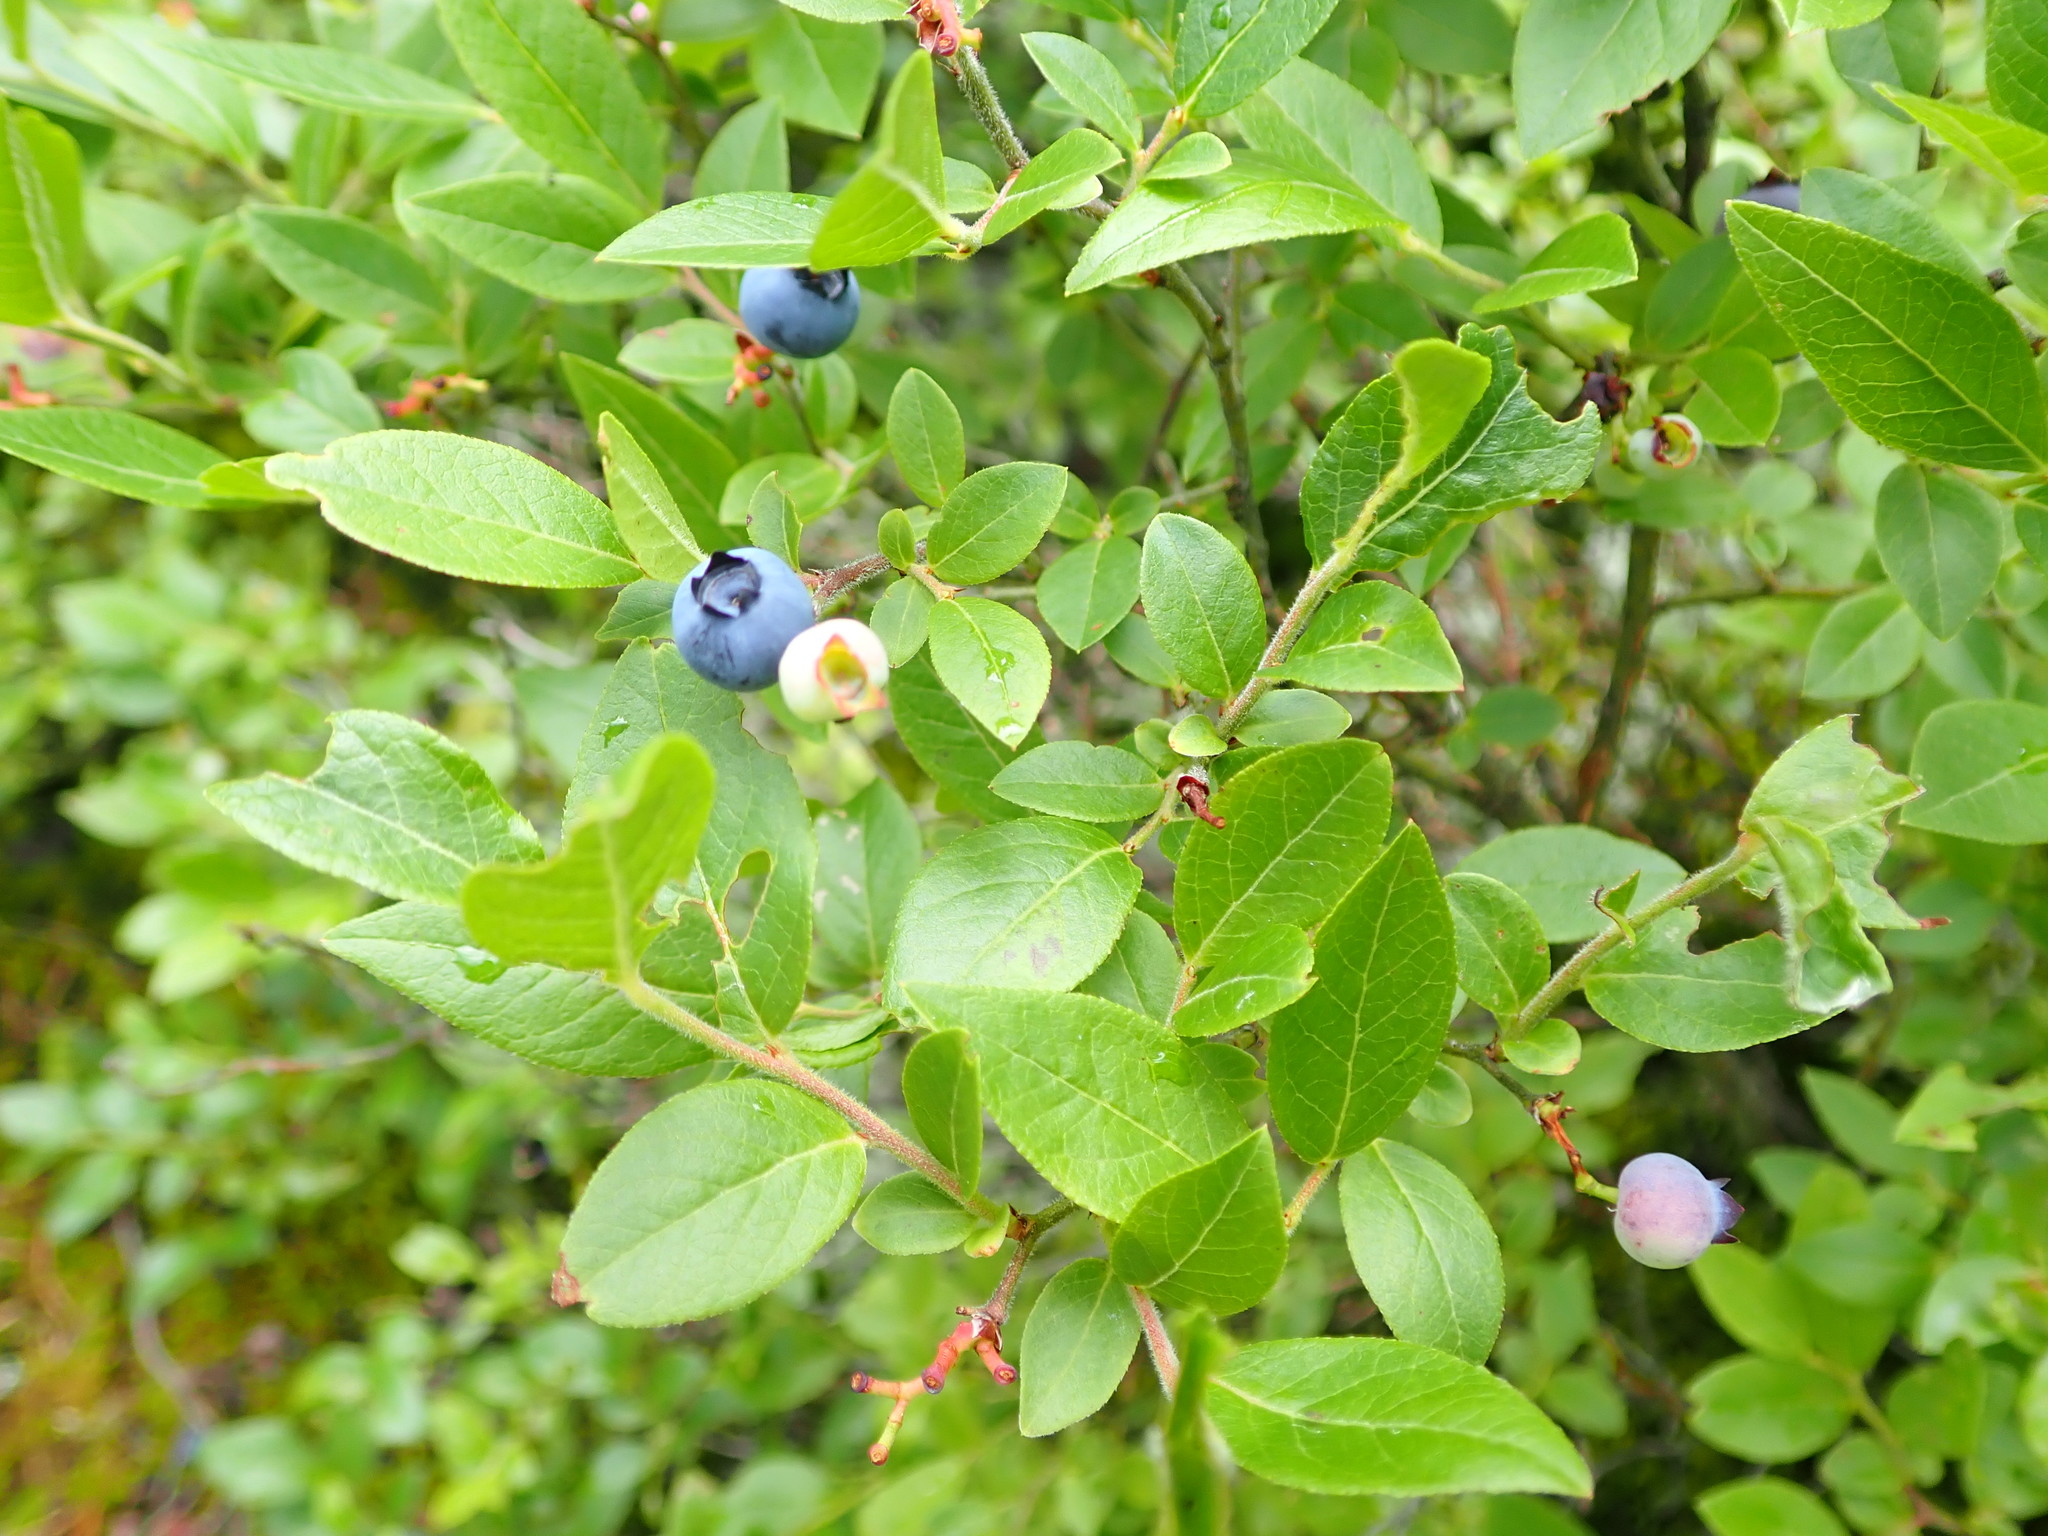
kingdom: Plantae
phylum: Tracheophyta
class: Magnoliopsida
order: Ericales
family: Ericaceae
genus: Vaccinium
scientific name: Vaccinium angustifolium
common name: Early lowbush blueberry
